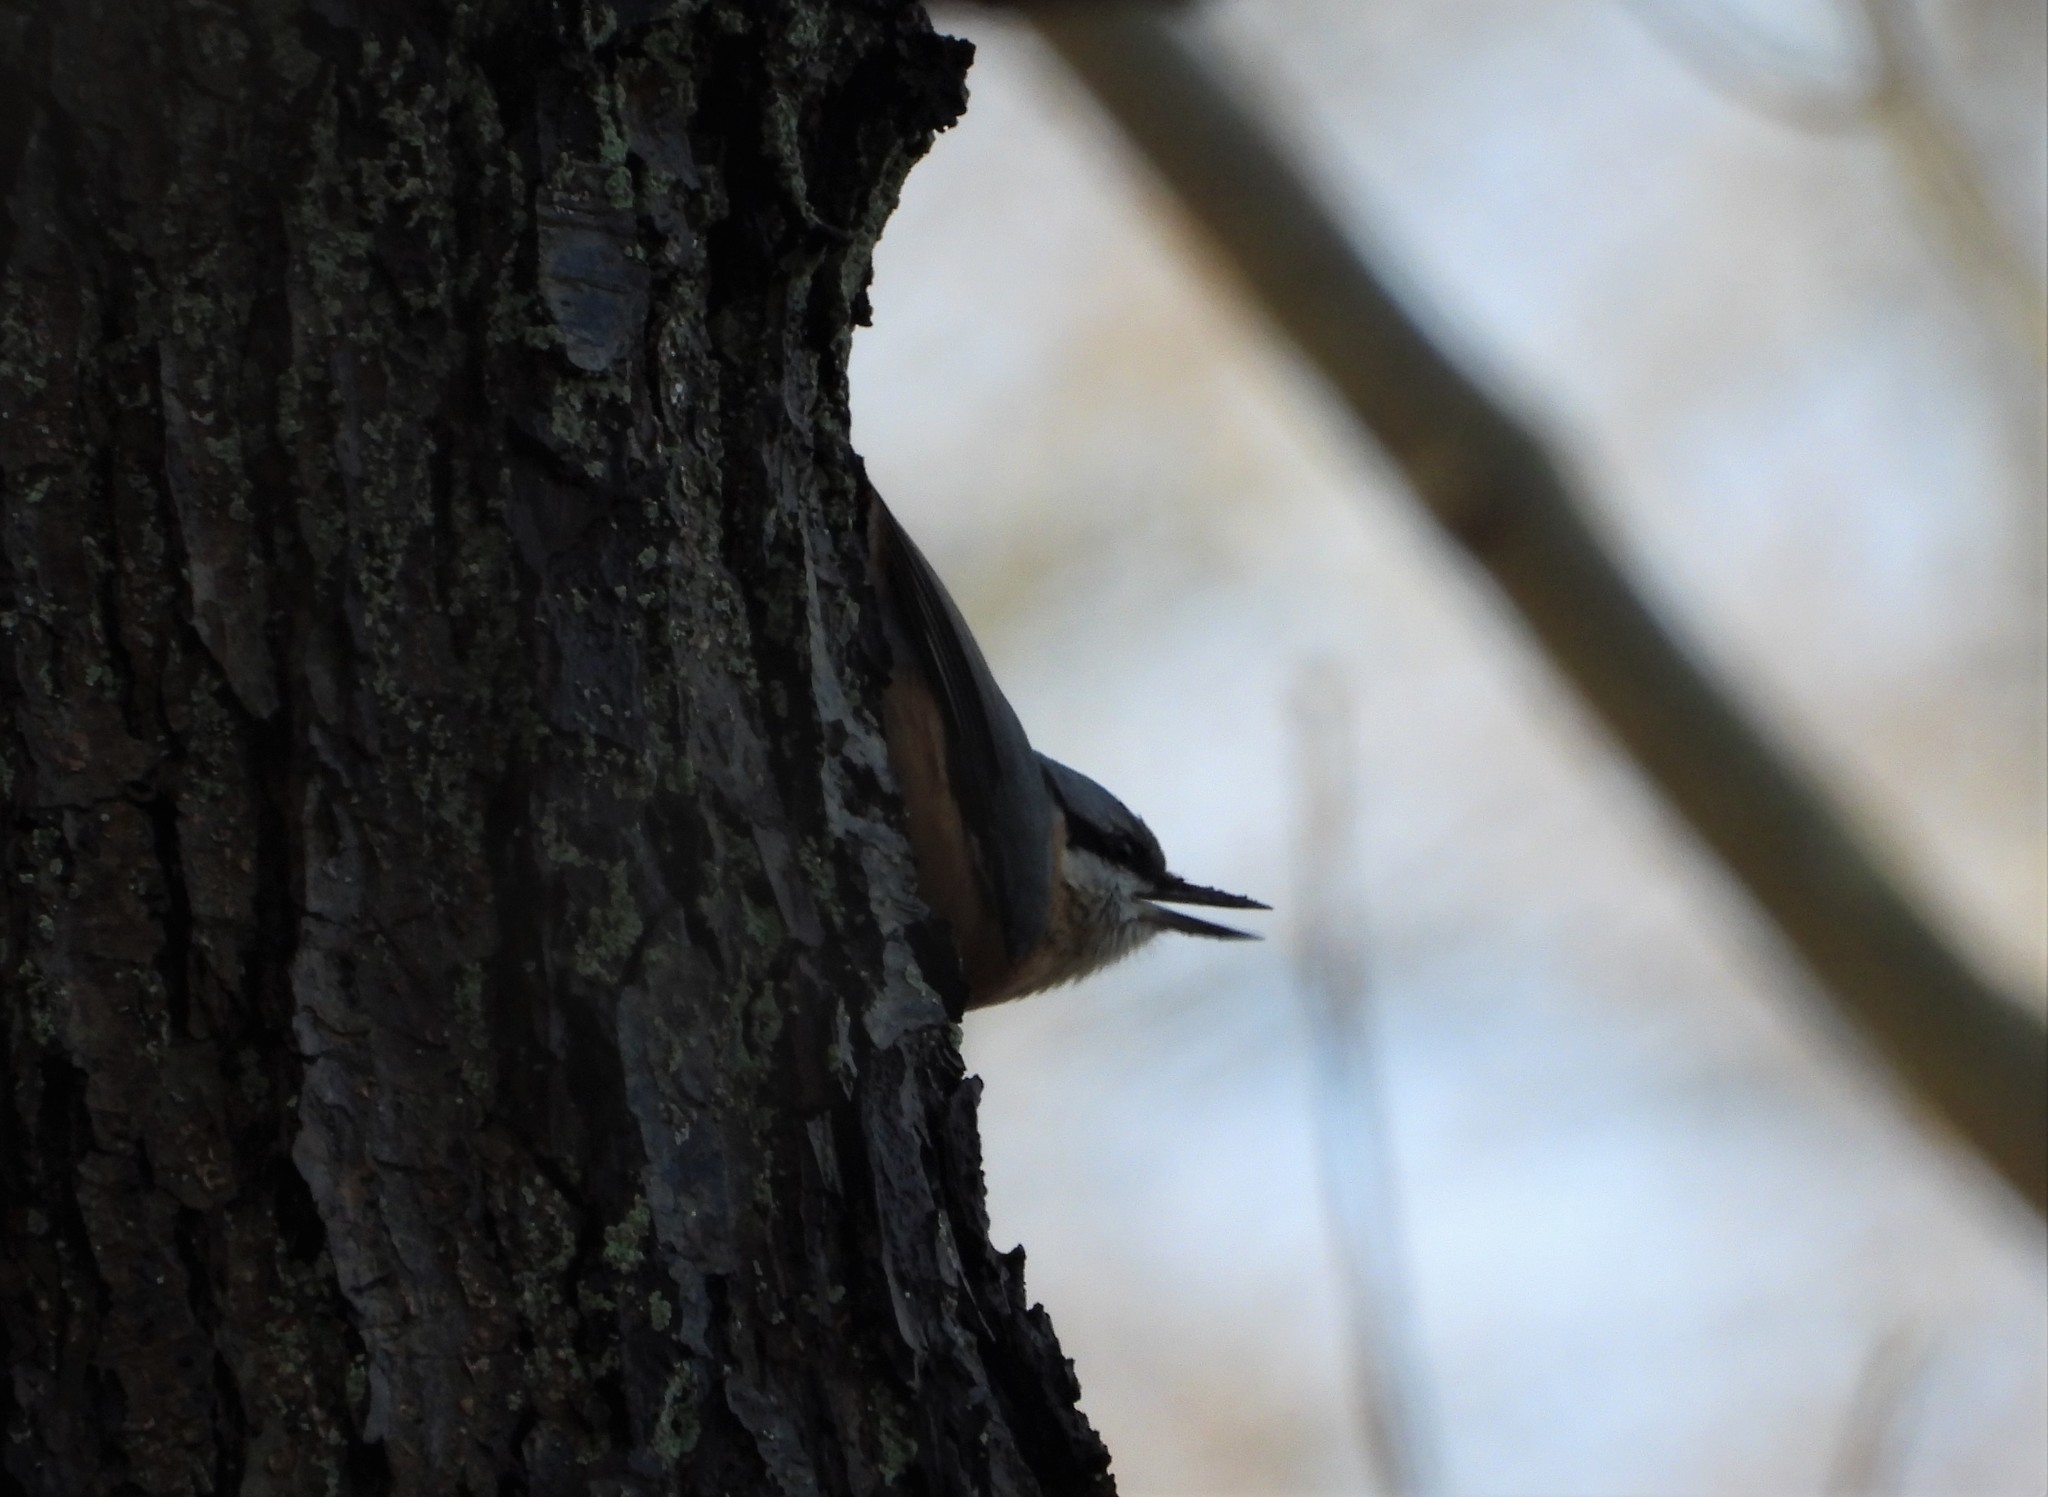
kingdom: Animalia
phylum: Chordata
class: Aves
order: Passeriformes
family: Sittidae
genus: Sitta
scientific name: Sitta europaea
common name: Eurasian nuthatch
